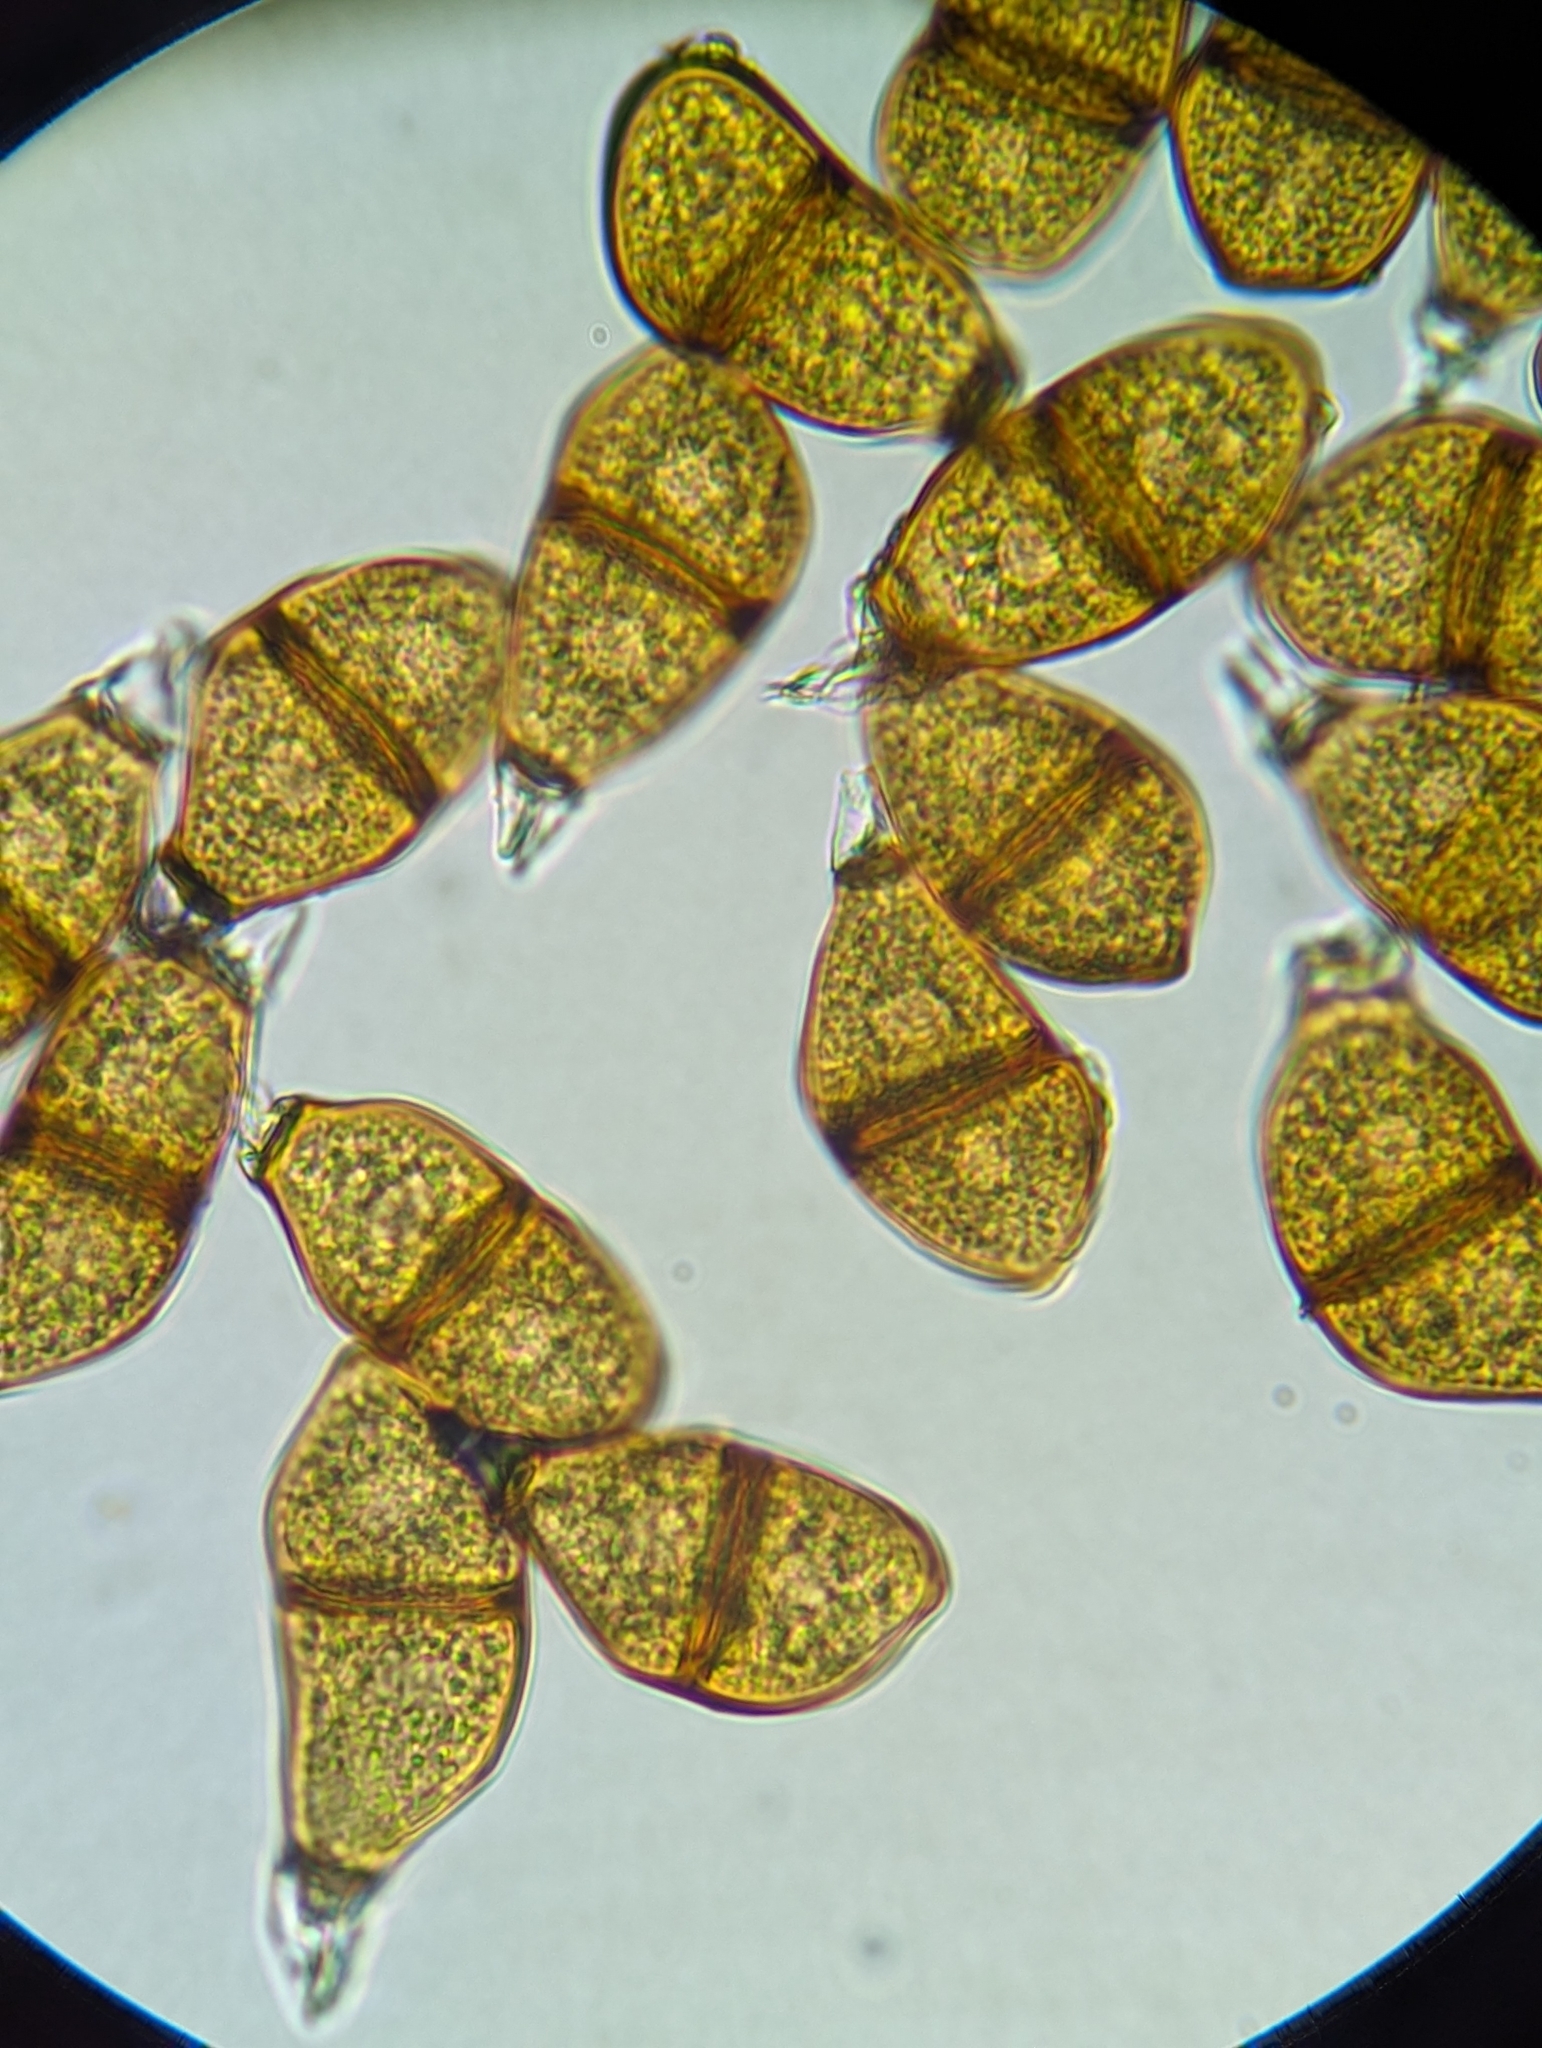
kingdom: Fungi
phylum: Basidiomycota
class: Pucciniomycetes
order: Pucciniales
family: Pucciniaceae
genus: Puccinia
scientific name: Puccinia liliacearum
